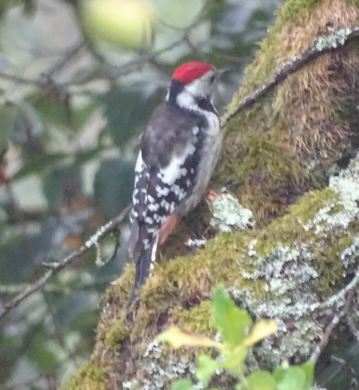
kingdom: Animalia
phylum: Chordata
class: Aves
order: Piciformes
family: Picidae
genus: Dendrocoptes
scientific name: Dendrocoptes medius
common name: Middle spotted woodpecker
